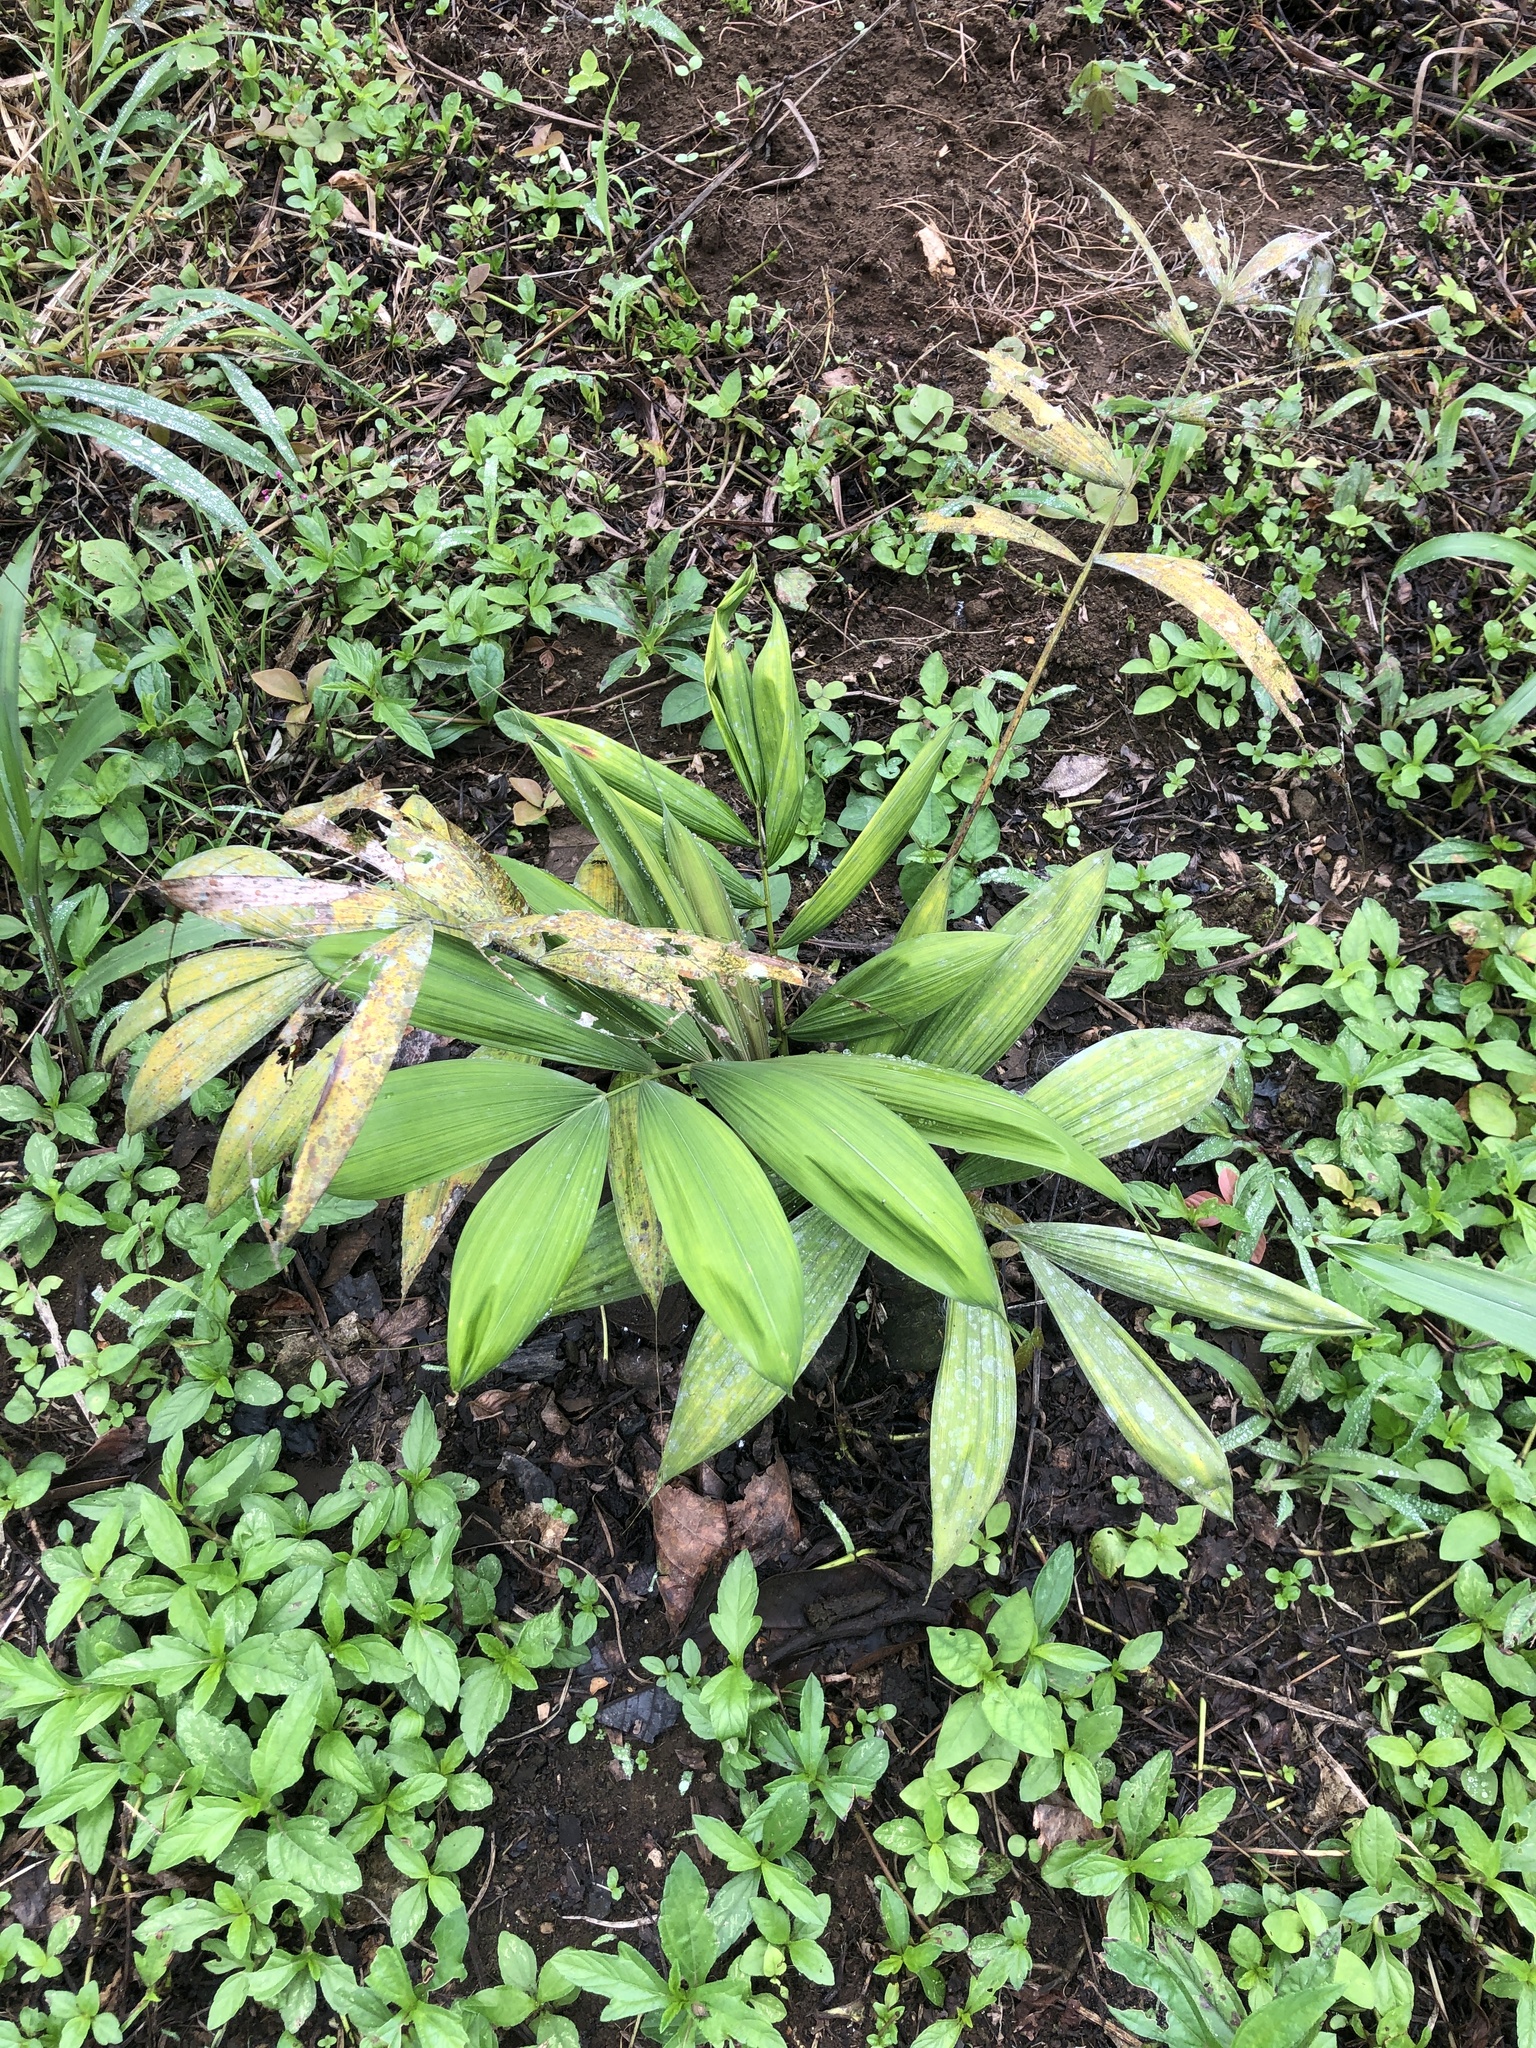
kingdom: Plantae
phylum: Tracheophyta
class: Liliopsida
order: Arecales
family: Arecaceae
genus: Euterpe
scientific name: Euterpe oleracea
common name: Assai palm
